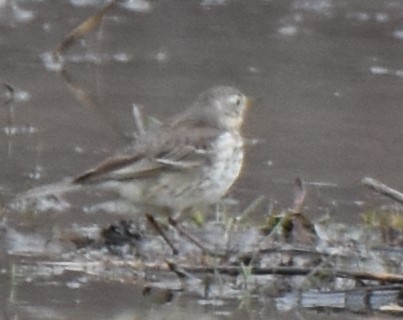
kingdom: Animalia
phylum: Chordata
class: Aves
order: Passeriformes
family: Motacillidae
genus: Anthus
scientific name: Anthus rubescens
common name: Buff-bellied pipit
